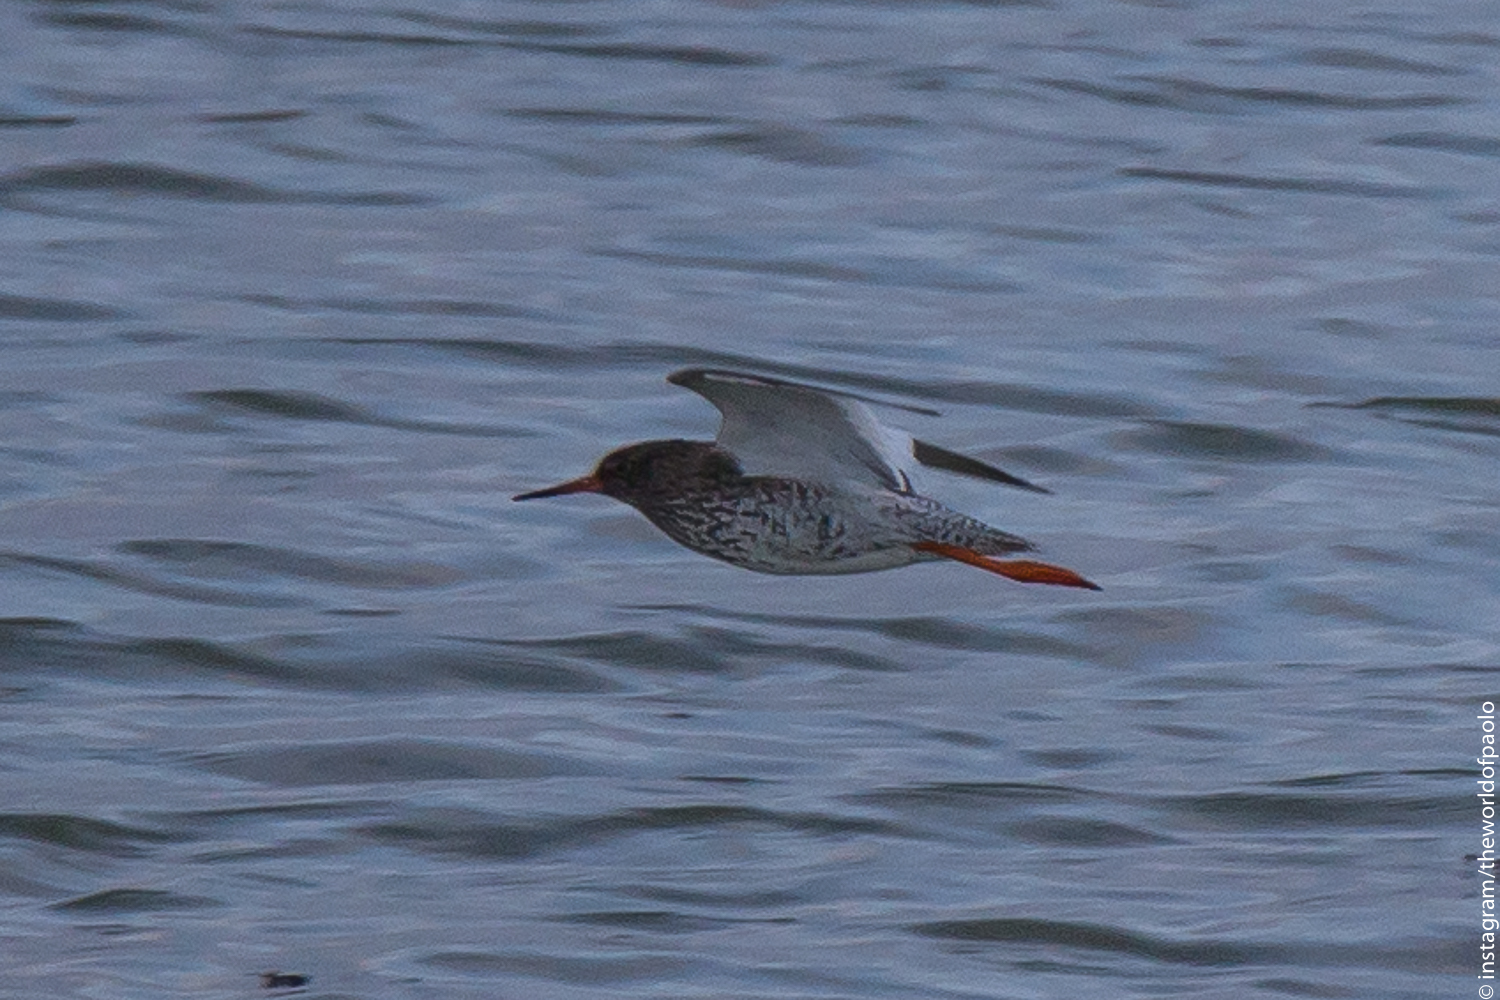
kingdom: Animalia
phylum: Chordata
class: Aves
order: Charadriiformes
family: Scolopacidae
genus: Tringa
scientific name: Tringa totanus
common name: Common redshank
